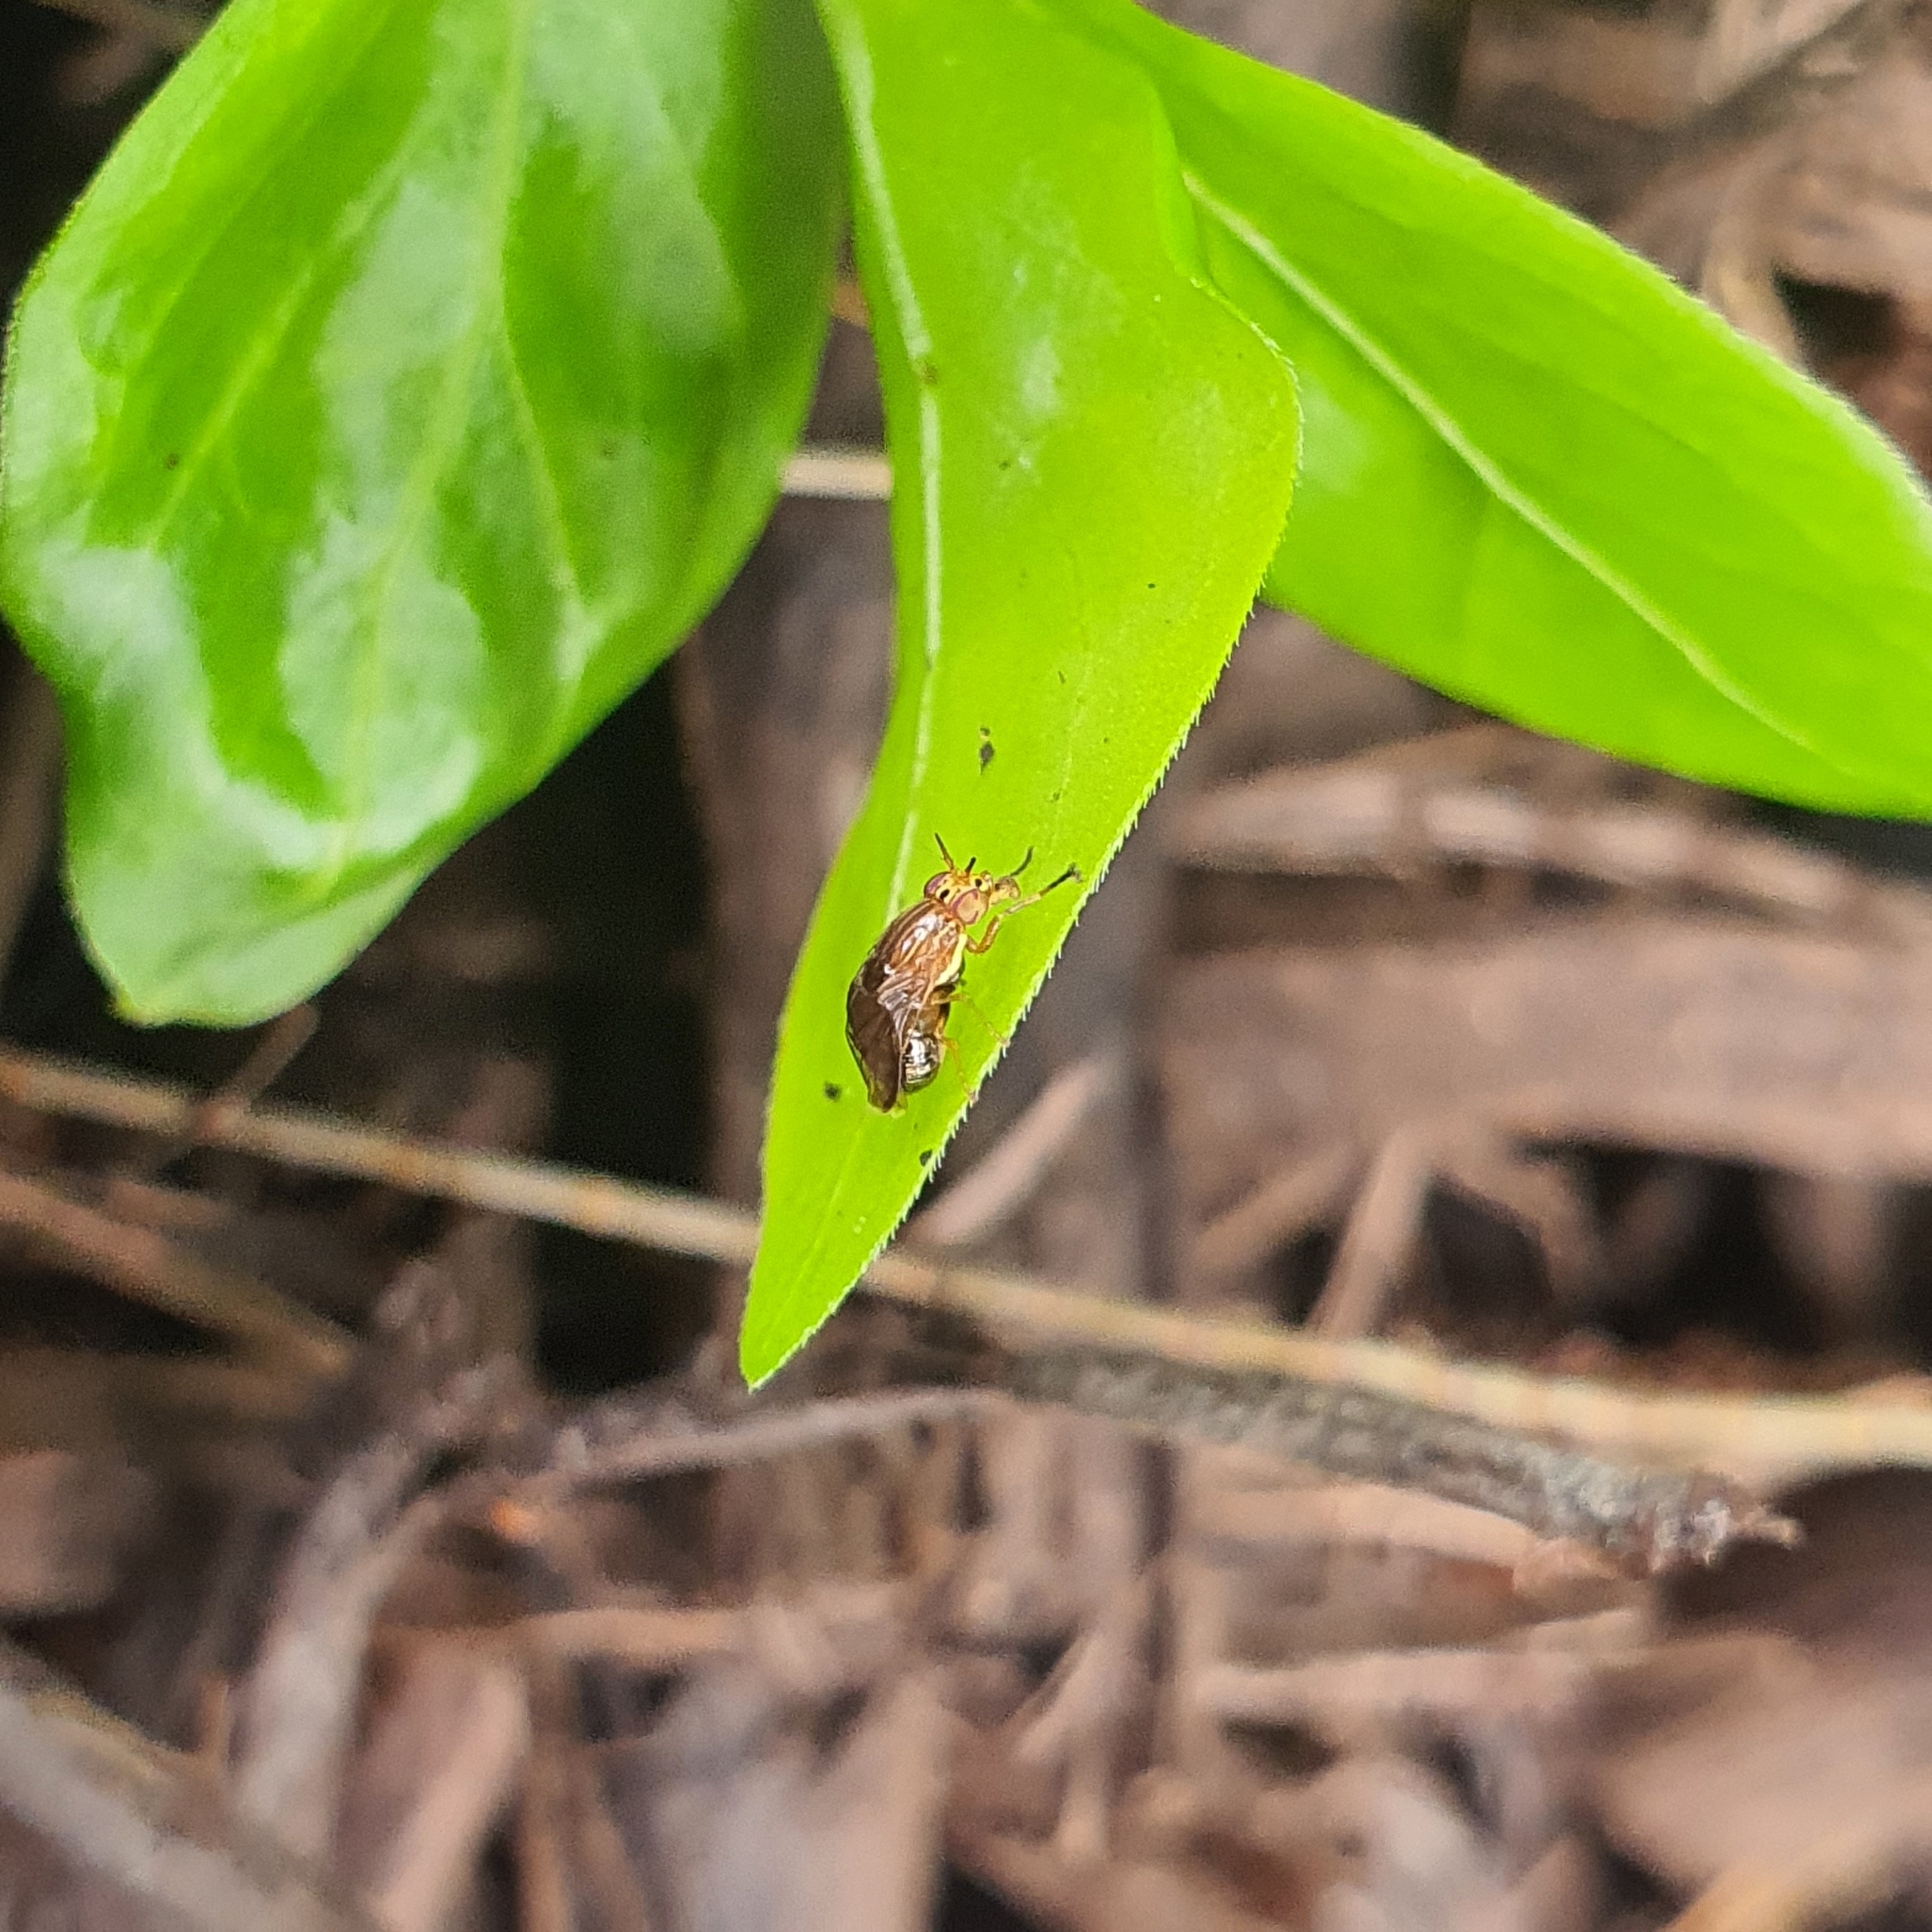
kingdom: Animalia
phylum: Arthropoda
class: Insecta
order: Diptera
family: Lauxaniidae
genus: Steganopsis
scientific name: Steganopsis melanogaster
